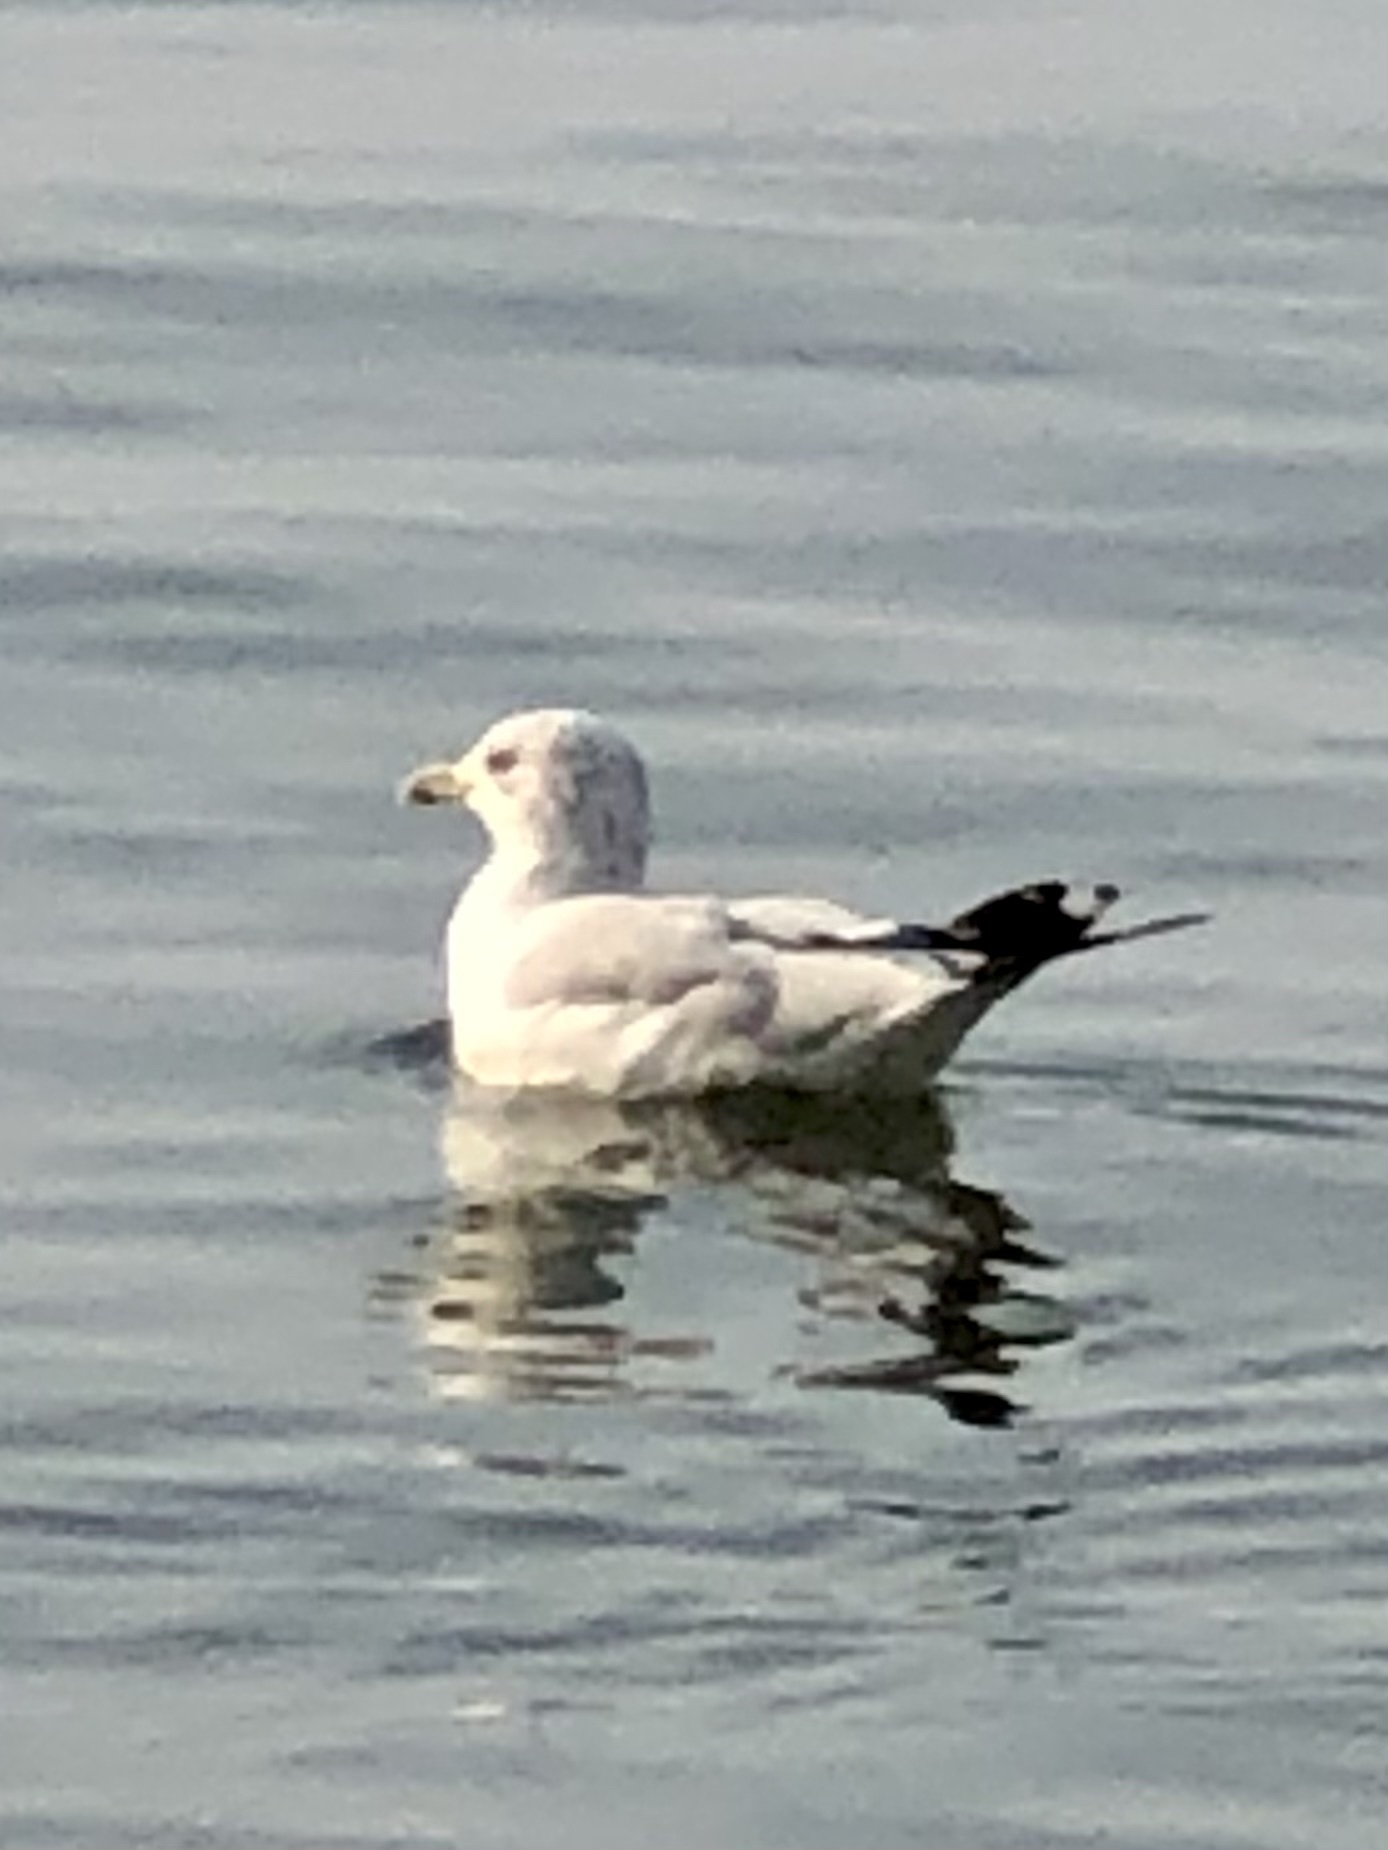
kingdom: Animalia
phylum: Chordata
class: Aves
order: Charadriiformes
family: Laridae
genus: Larus
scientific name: Larus delawarensis
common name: Ring-billed gull
